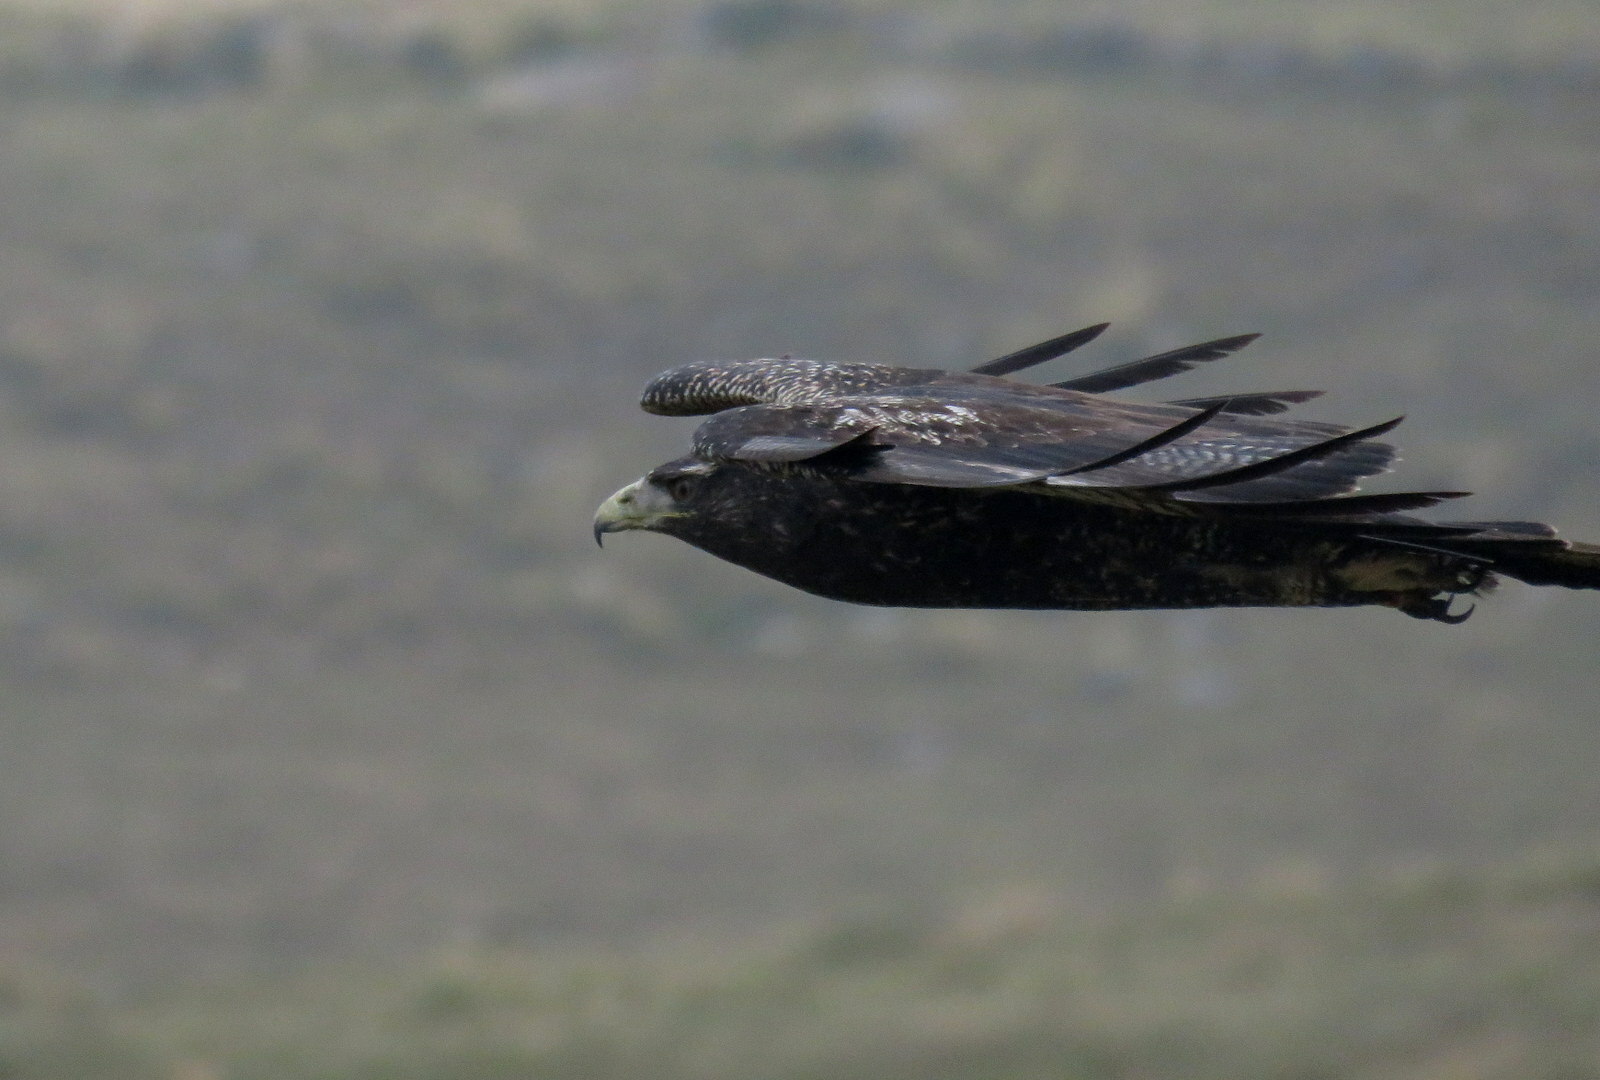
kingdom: Animalia
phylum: Chordata
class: Aves
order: Accipitriformes
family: Accipitridae
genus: Geranoaetus
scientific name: Geranoaetus melanoleucus
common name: Black-chested buzzard-eagle
